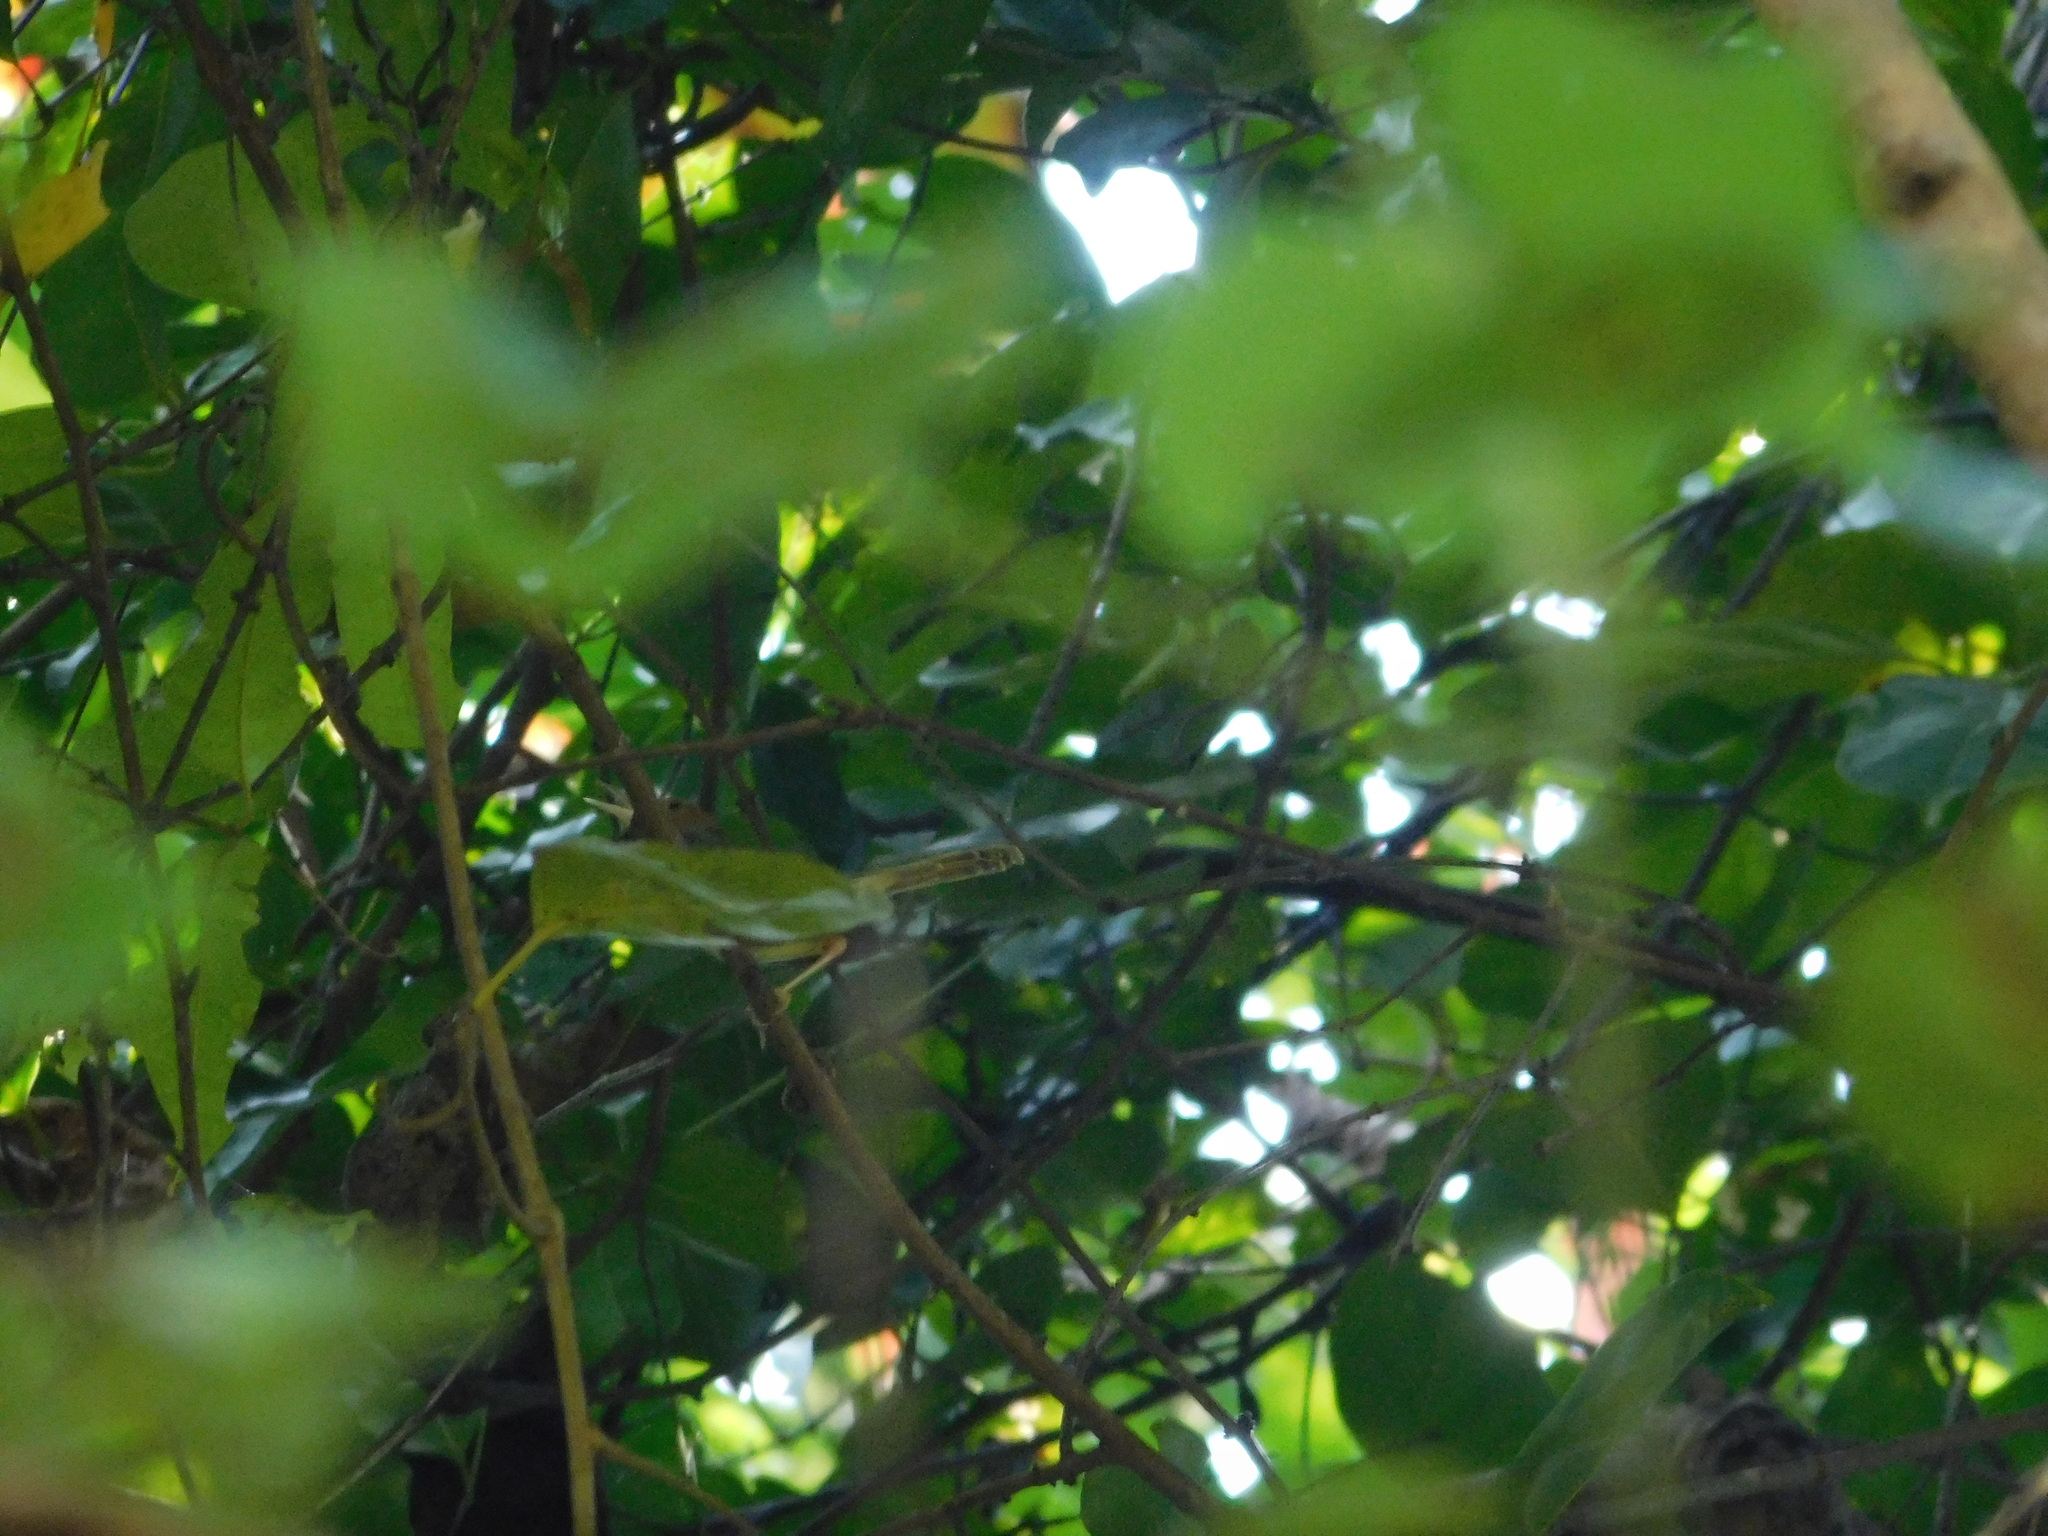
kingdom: Animalia
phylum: Chordata
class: Aves
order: Passeriformes
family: Cisticolidae
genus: Orthotomus
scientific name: Orthotomus sepium
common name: Olive-backed tailorbird
